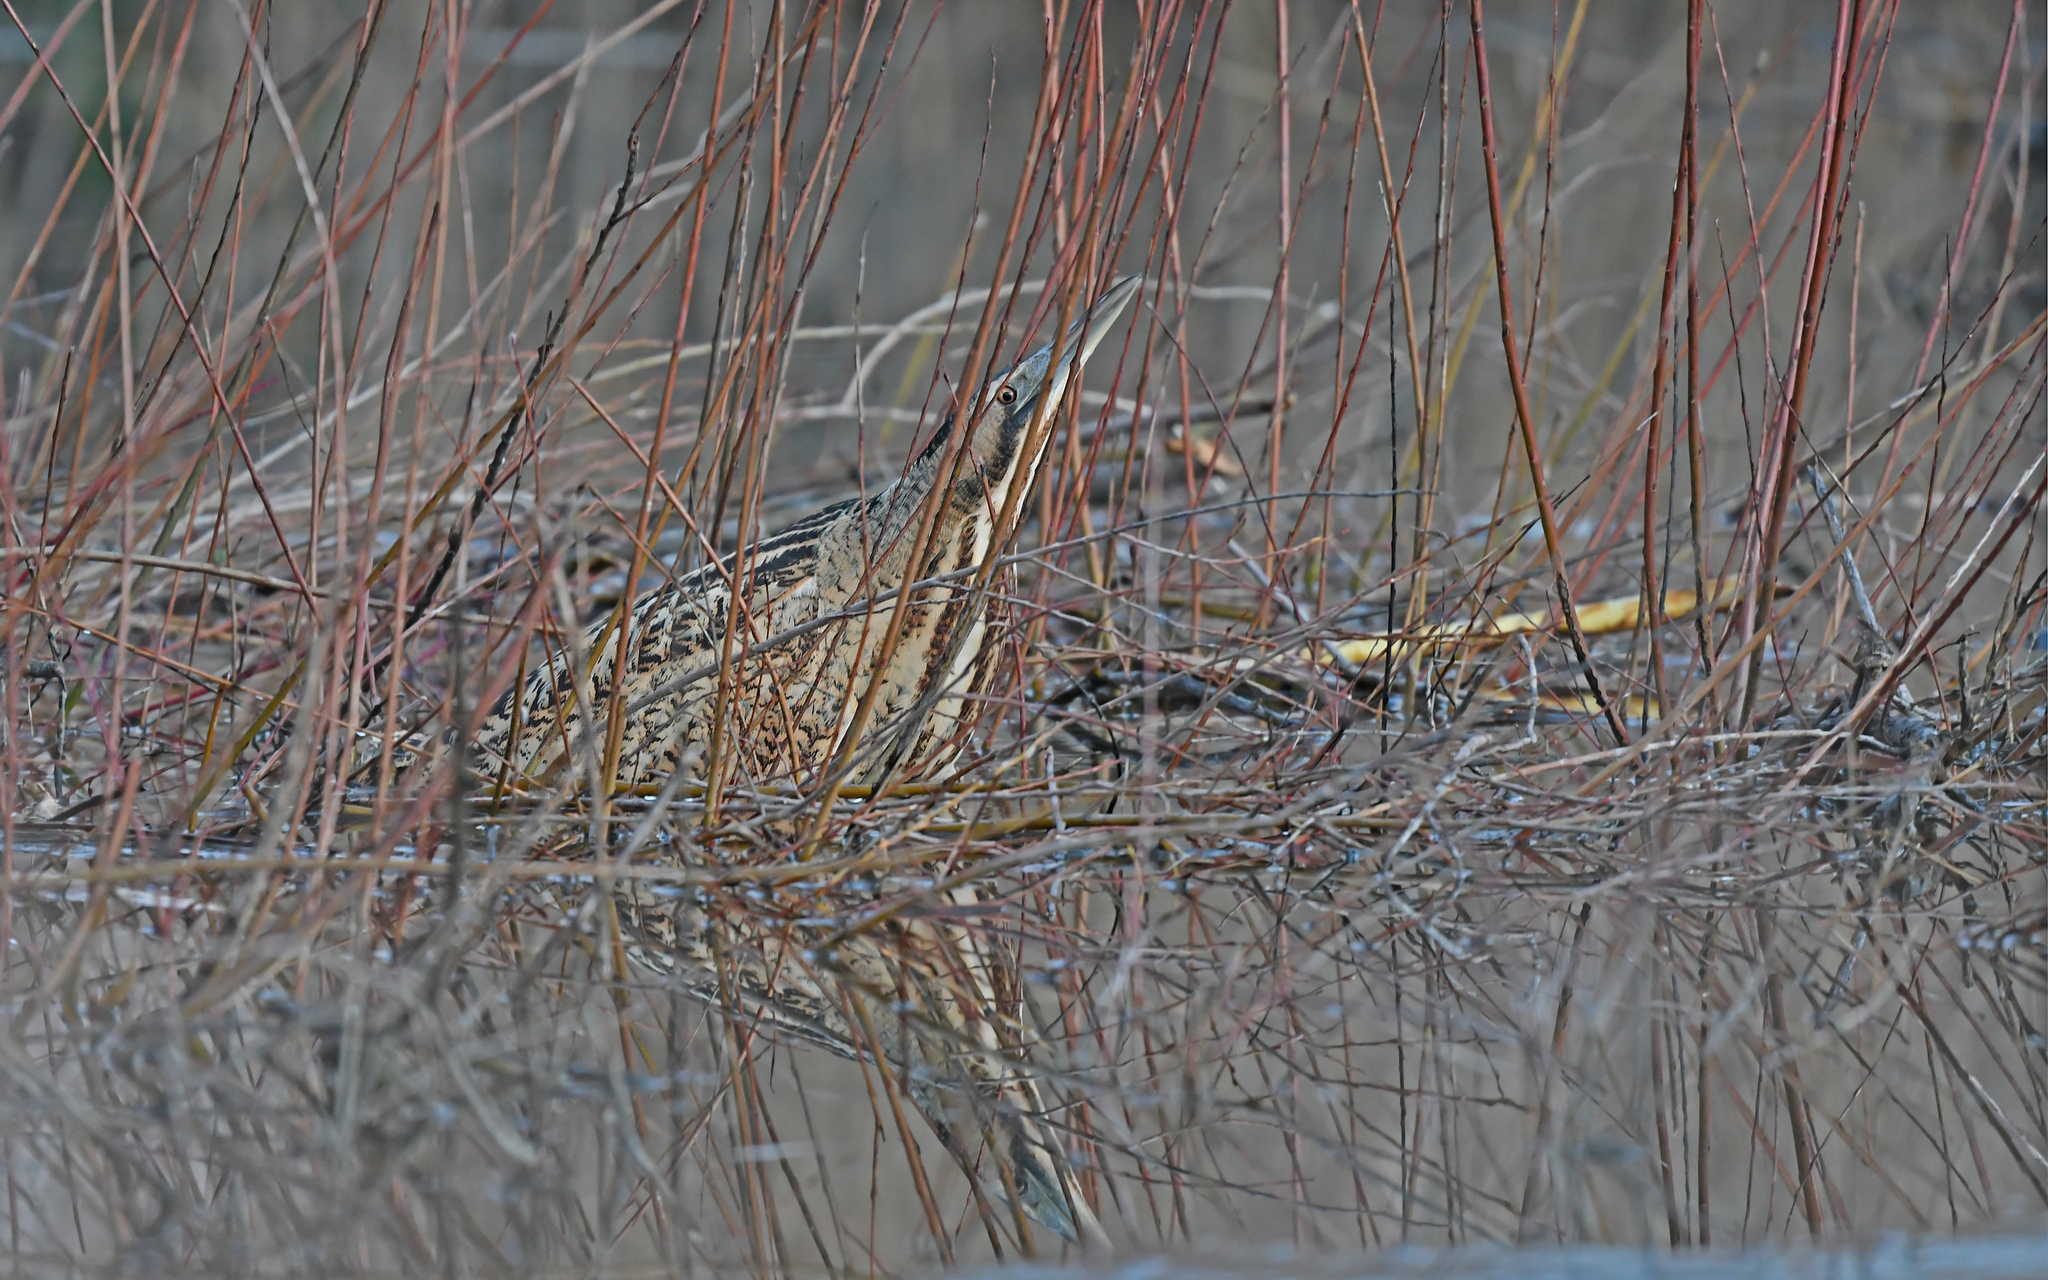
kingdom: Animalia
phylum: Chordata
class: Aves
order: Pelecaniformes
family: Ardeidae
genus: Botaurus
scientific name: Botaurus stellaris
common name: Eurasian bittern
